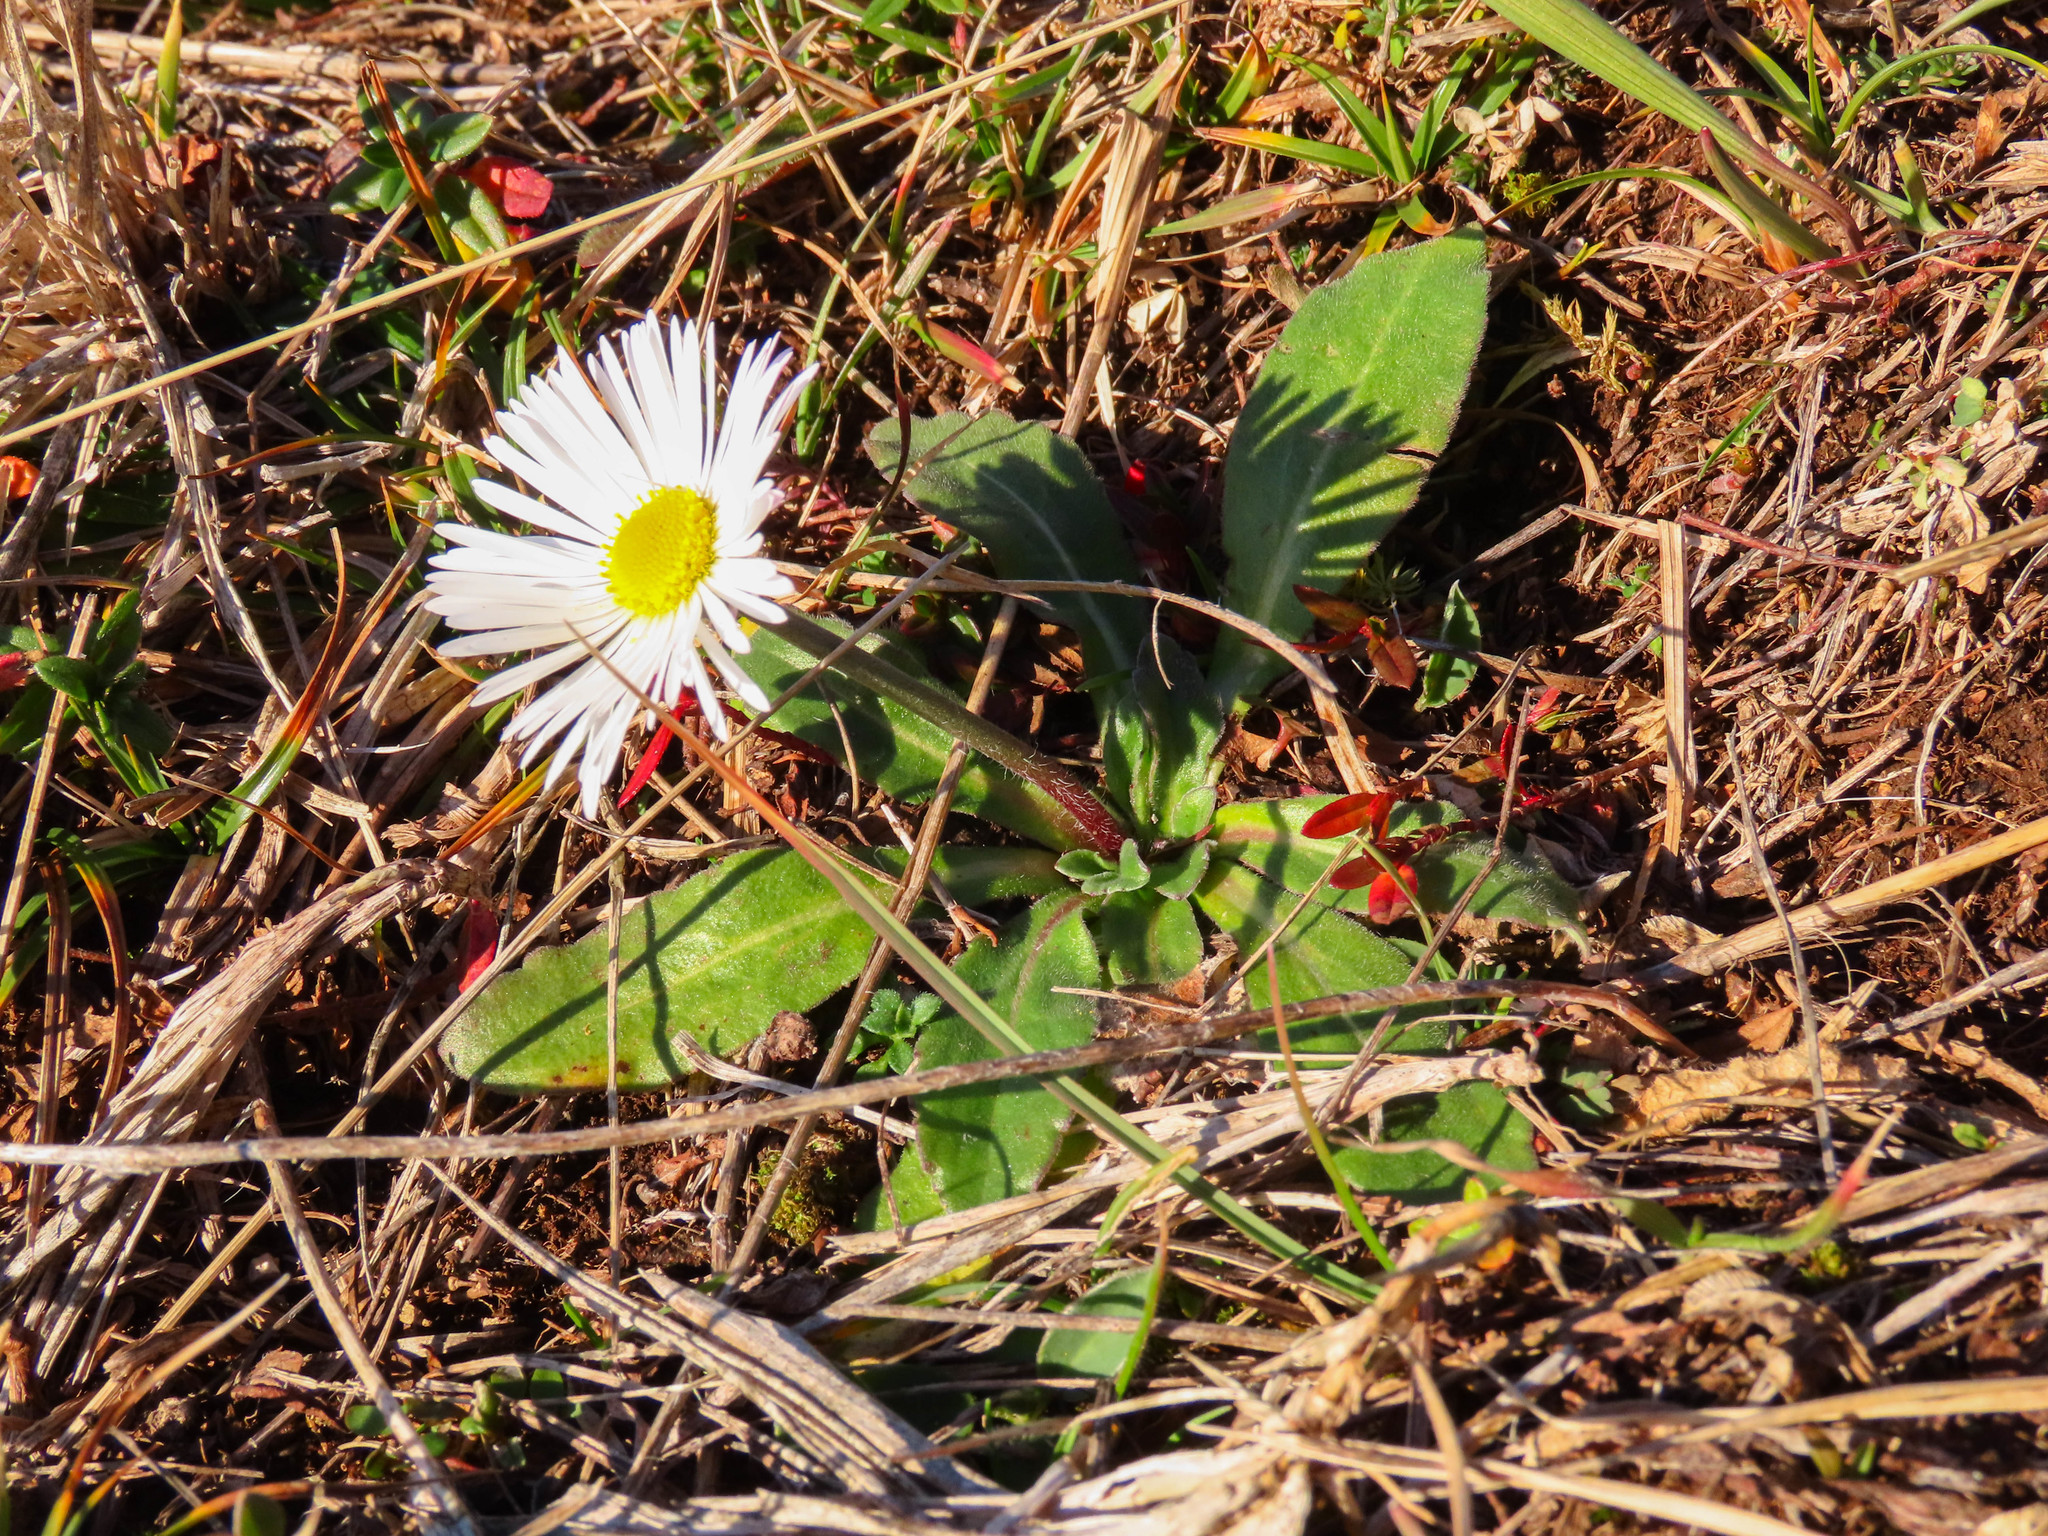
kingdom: Plantae
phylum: Tracheophyta
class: Magnoliopsida
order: Asterales
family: Asteraceae
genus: Bellis
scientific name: Bellis sylvestris
